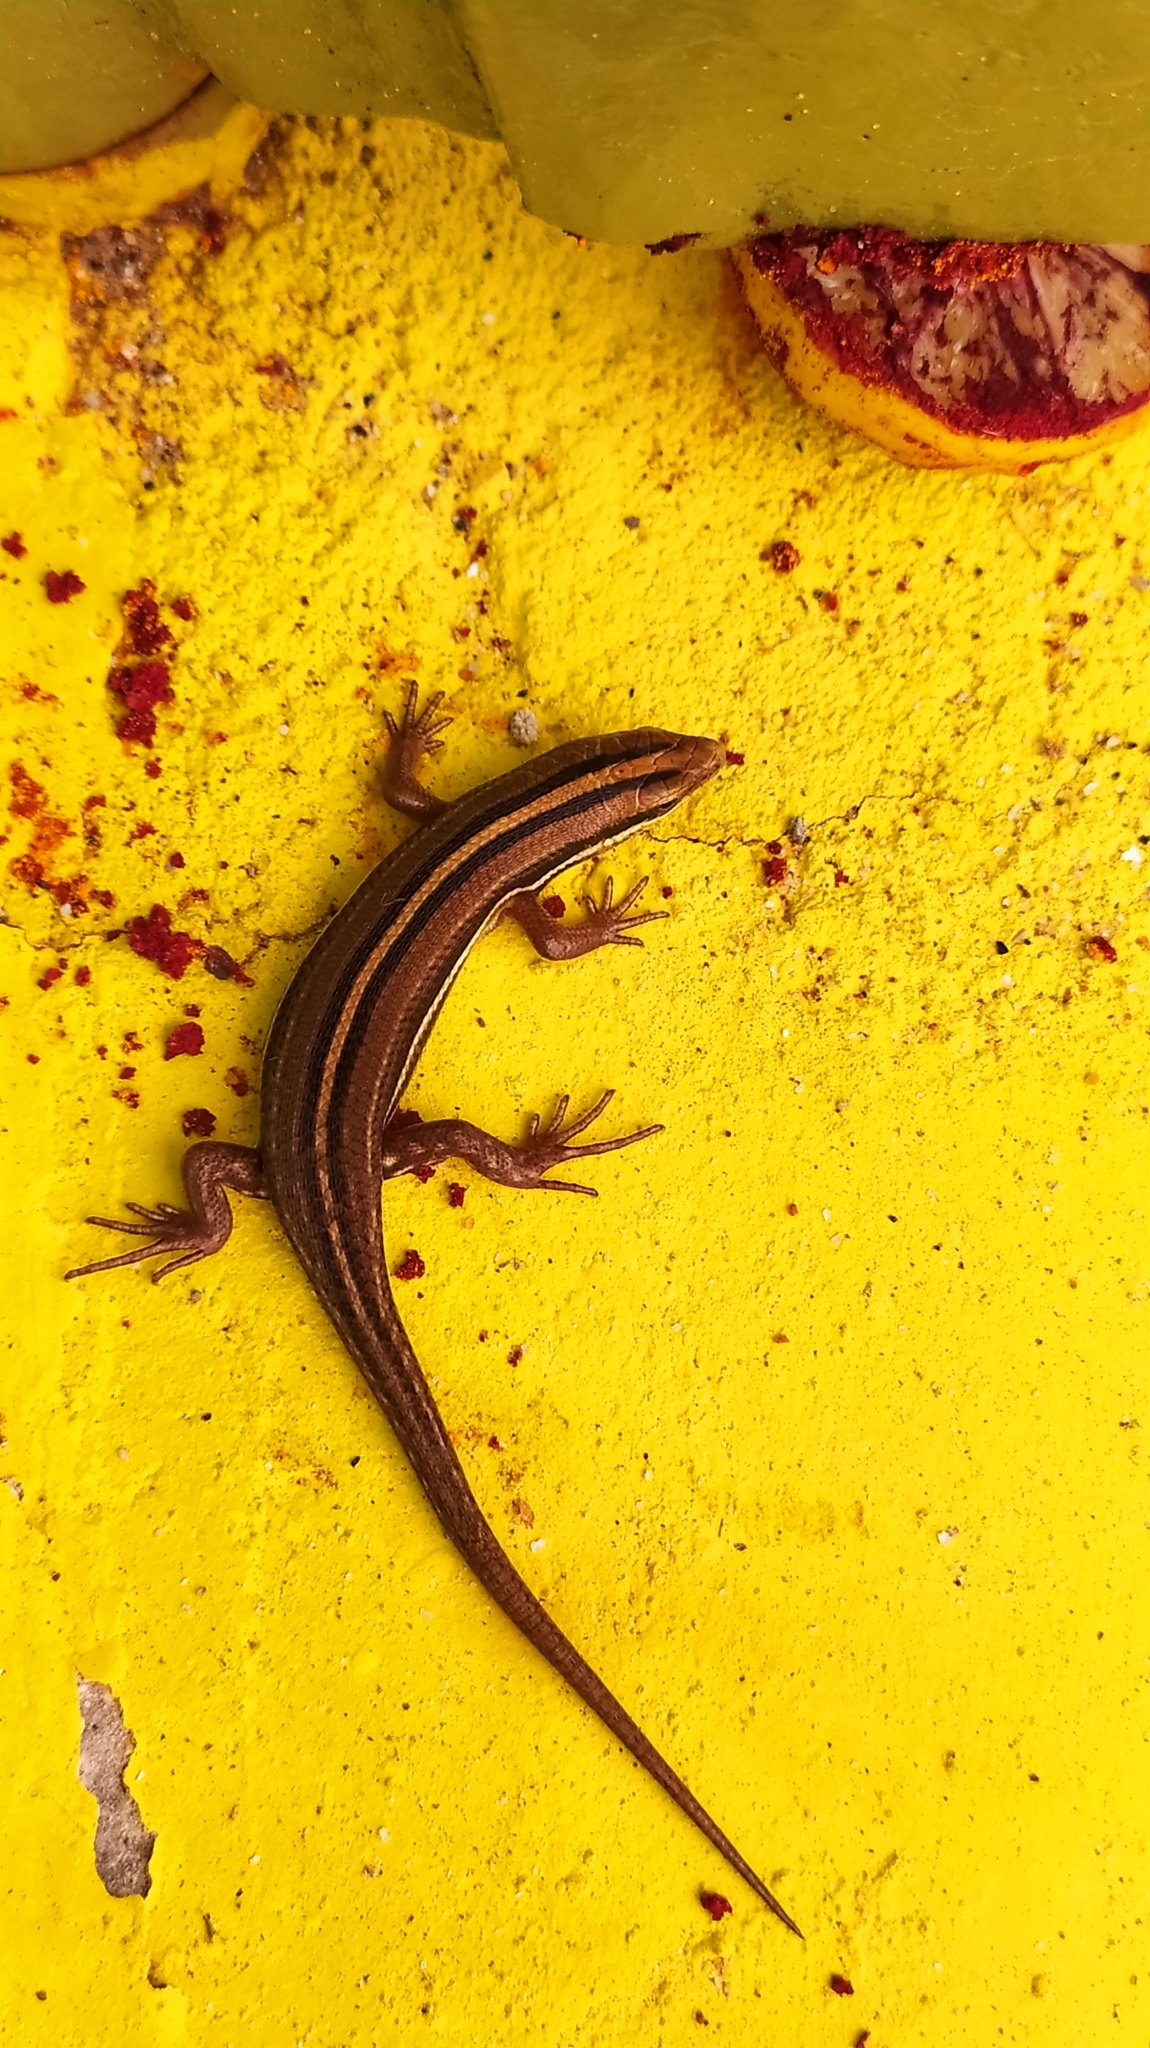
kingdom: Animalia
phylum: Chordata
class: Squamata
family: Scincidae
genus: Eutropis
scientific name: Eutropis bibronii
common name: Bibron's skink
